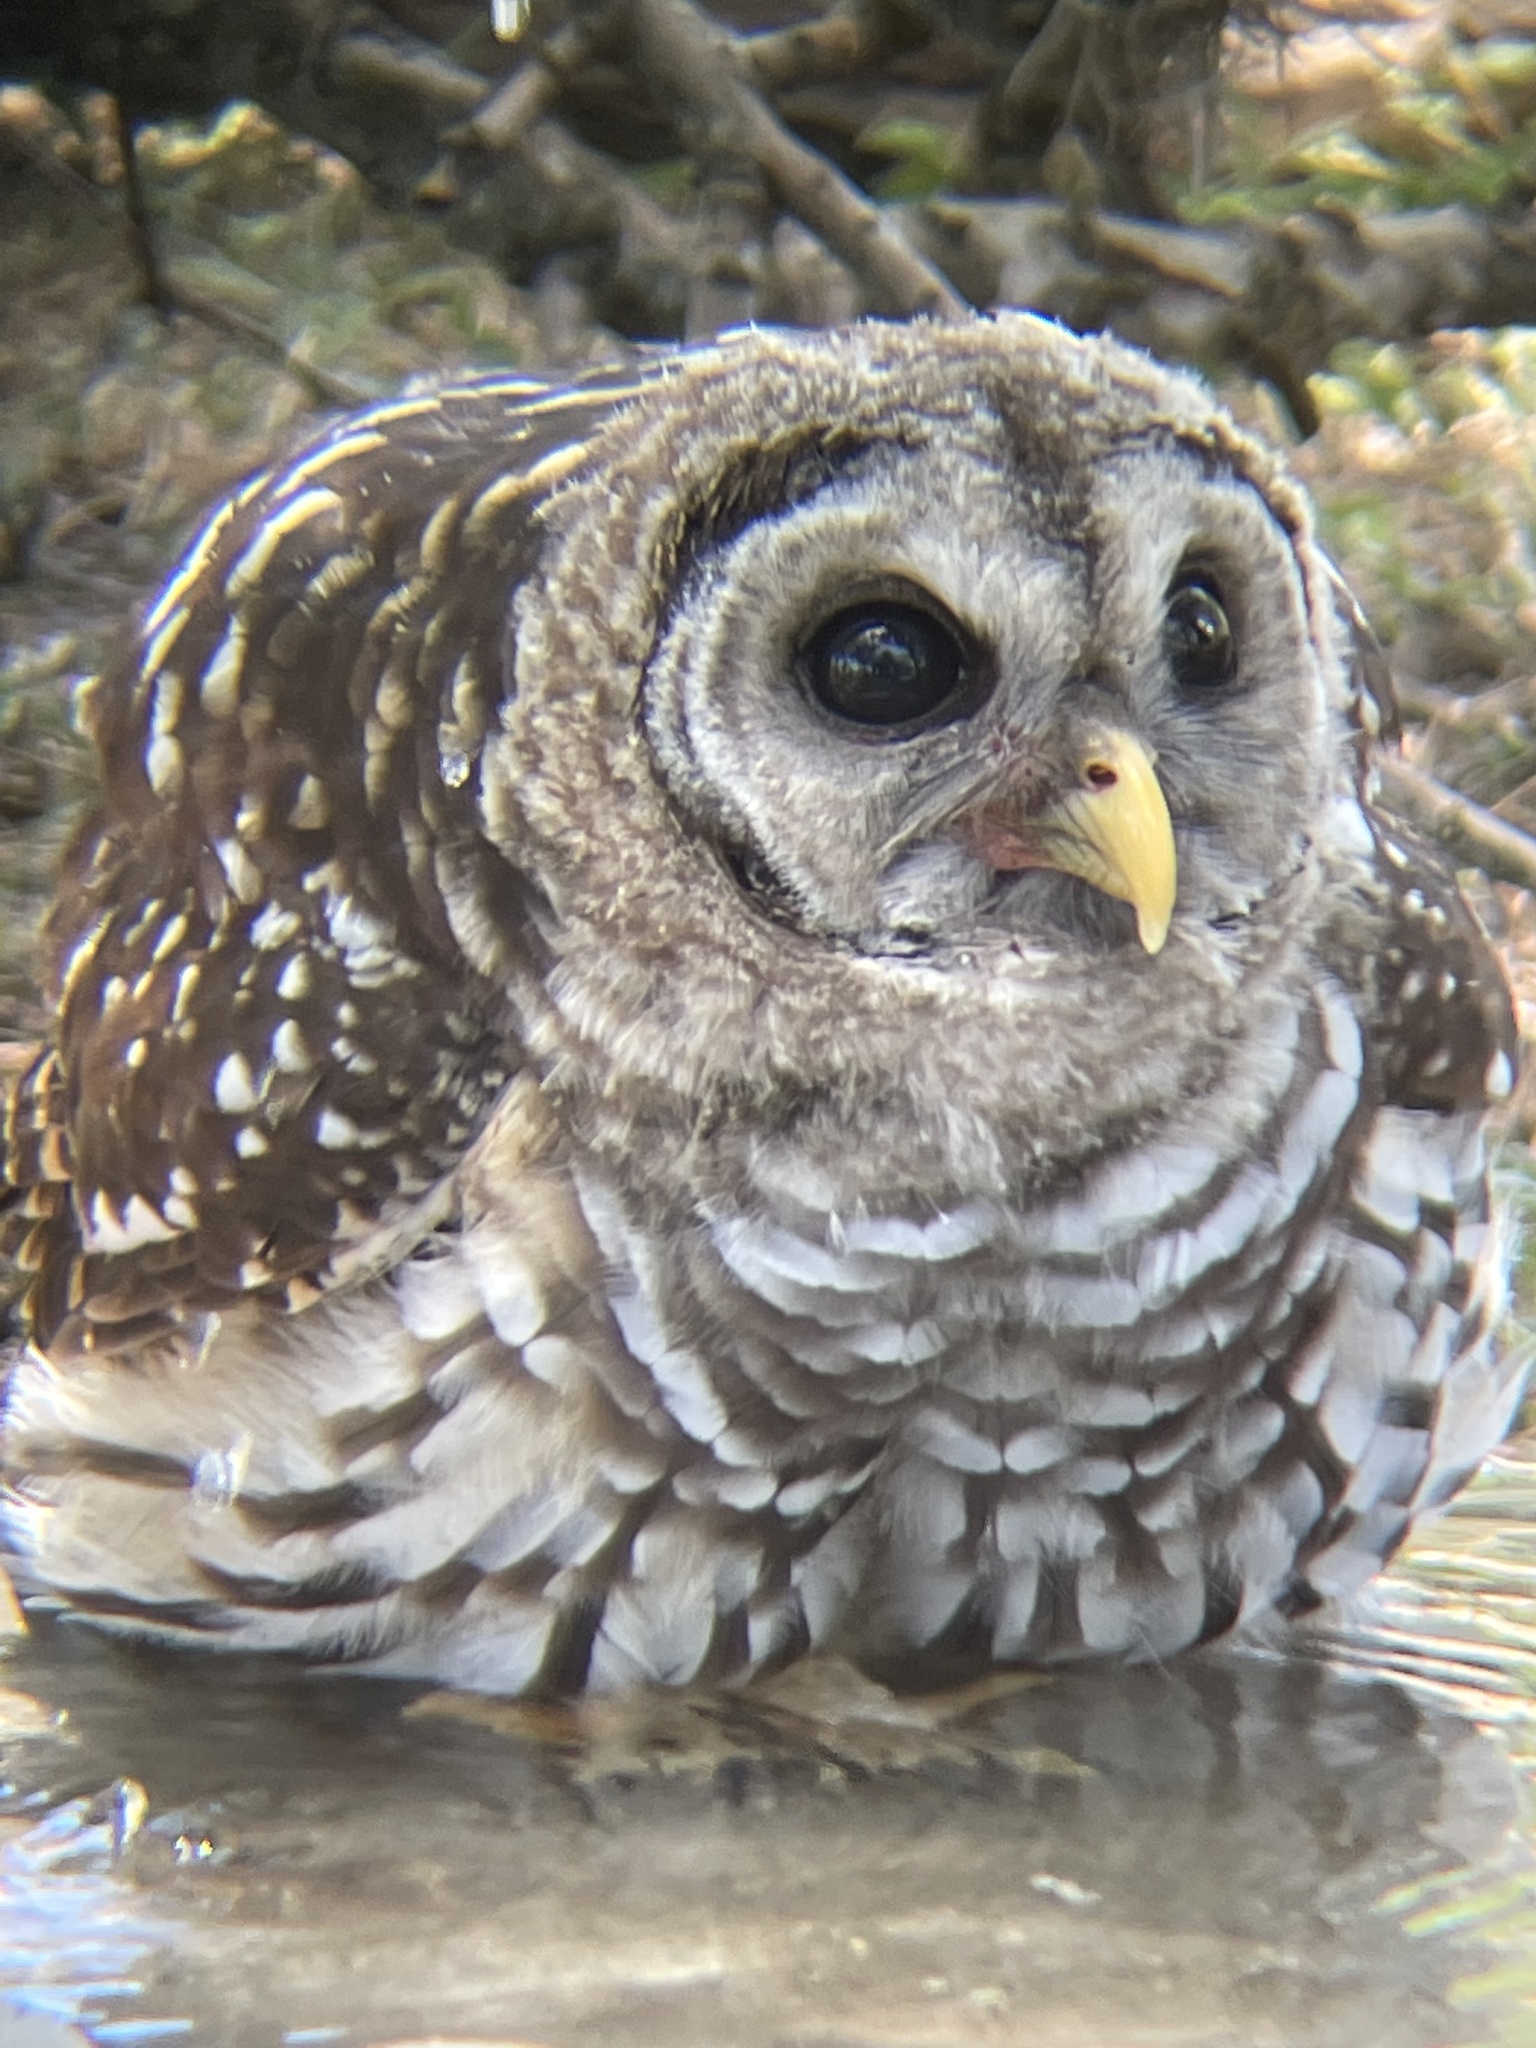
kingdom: Animalia
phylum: Chordata
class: Aves
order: Strigiformes
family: Strigidae
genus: Strix
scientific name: Strix varia
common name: Barred owl
